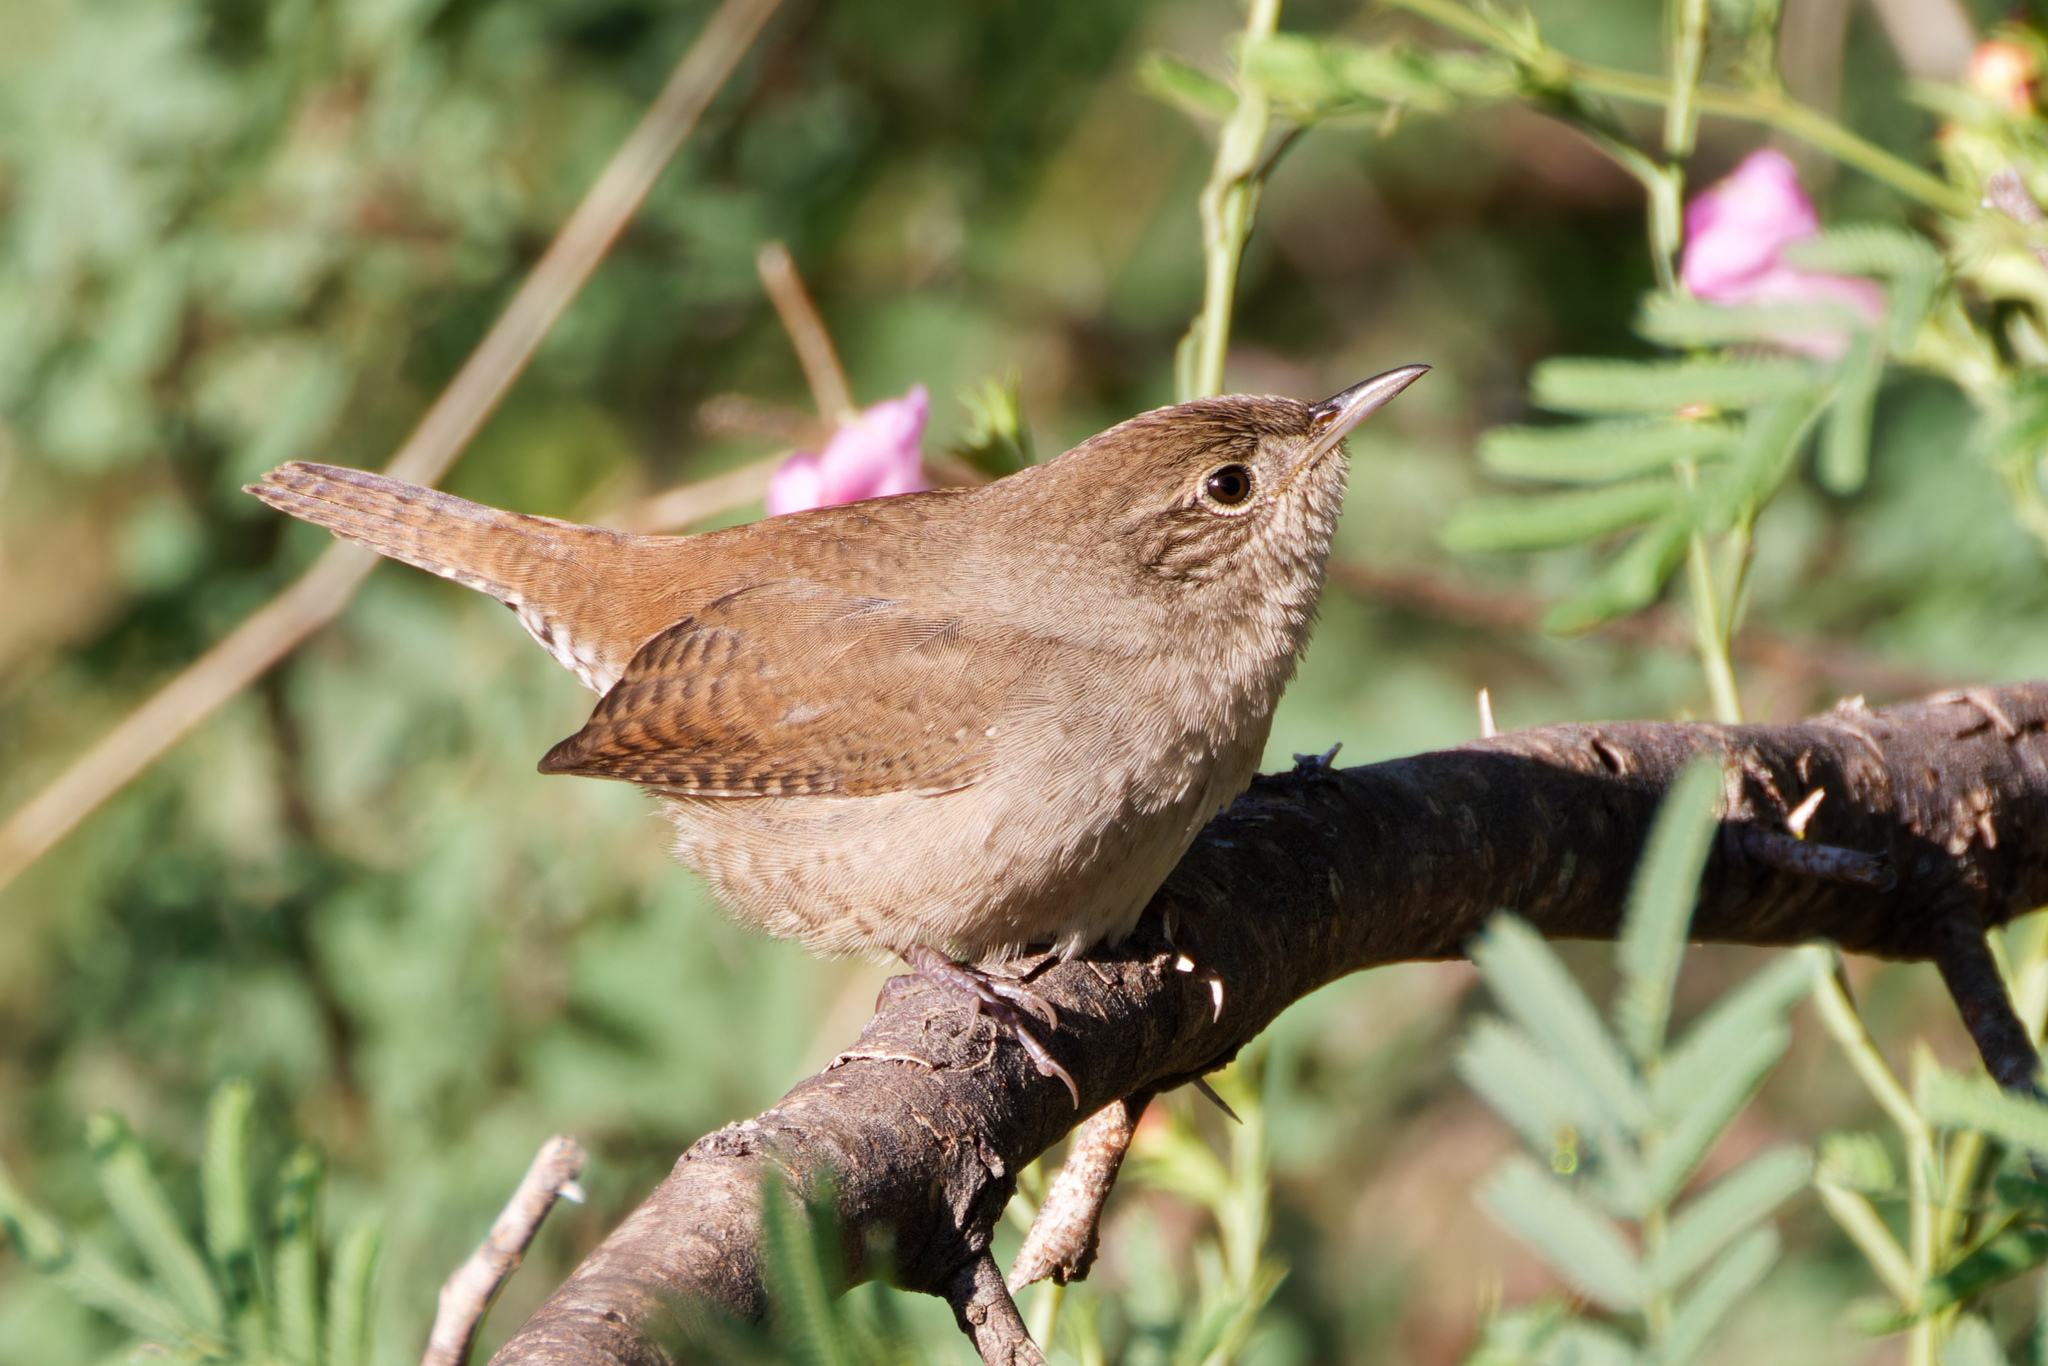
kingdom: Animalia
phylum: Chordata
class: Aves
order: Passeriformes
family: Troglodytidae
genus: Troglodytes
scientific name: Troglodytes aedon
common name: House wren
